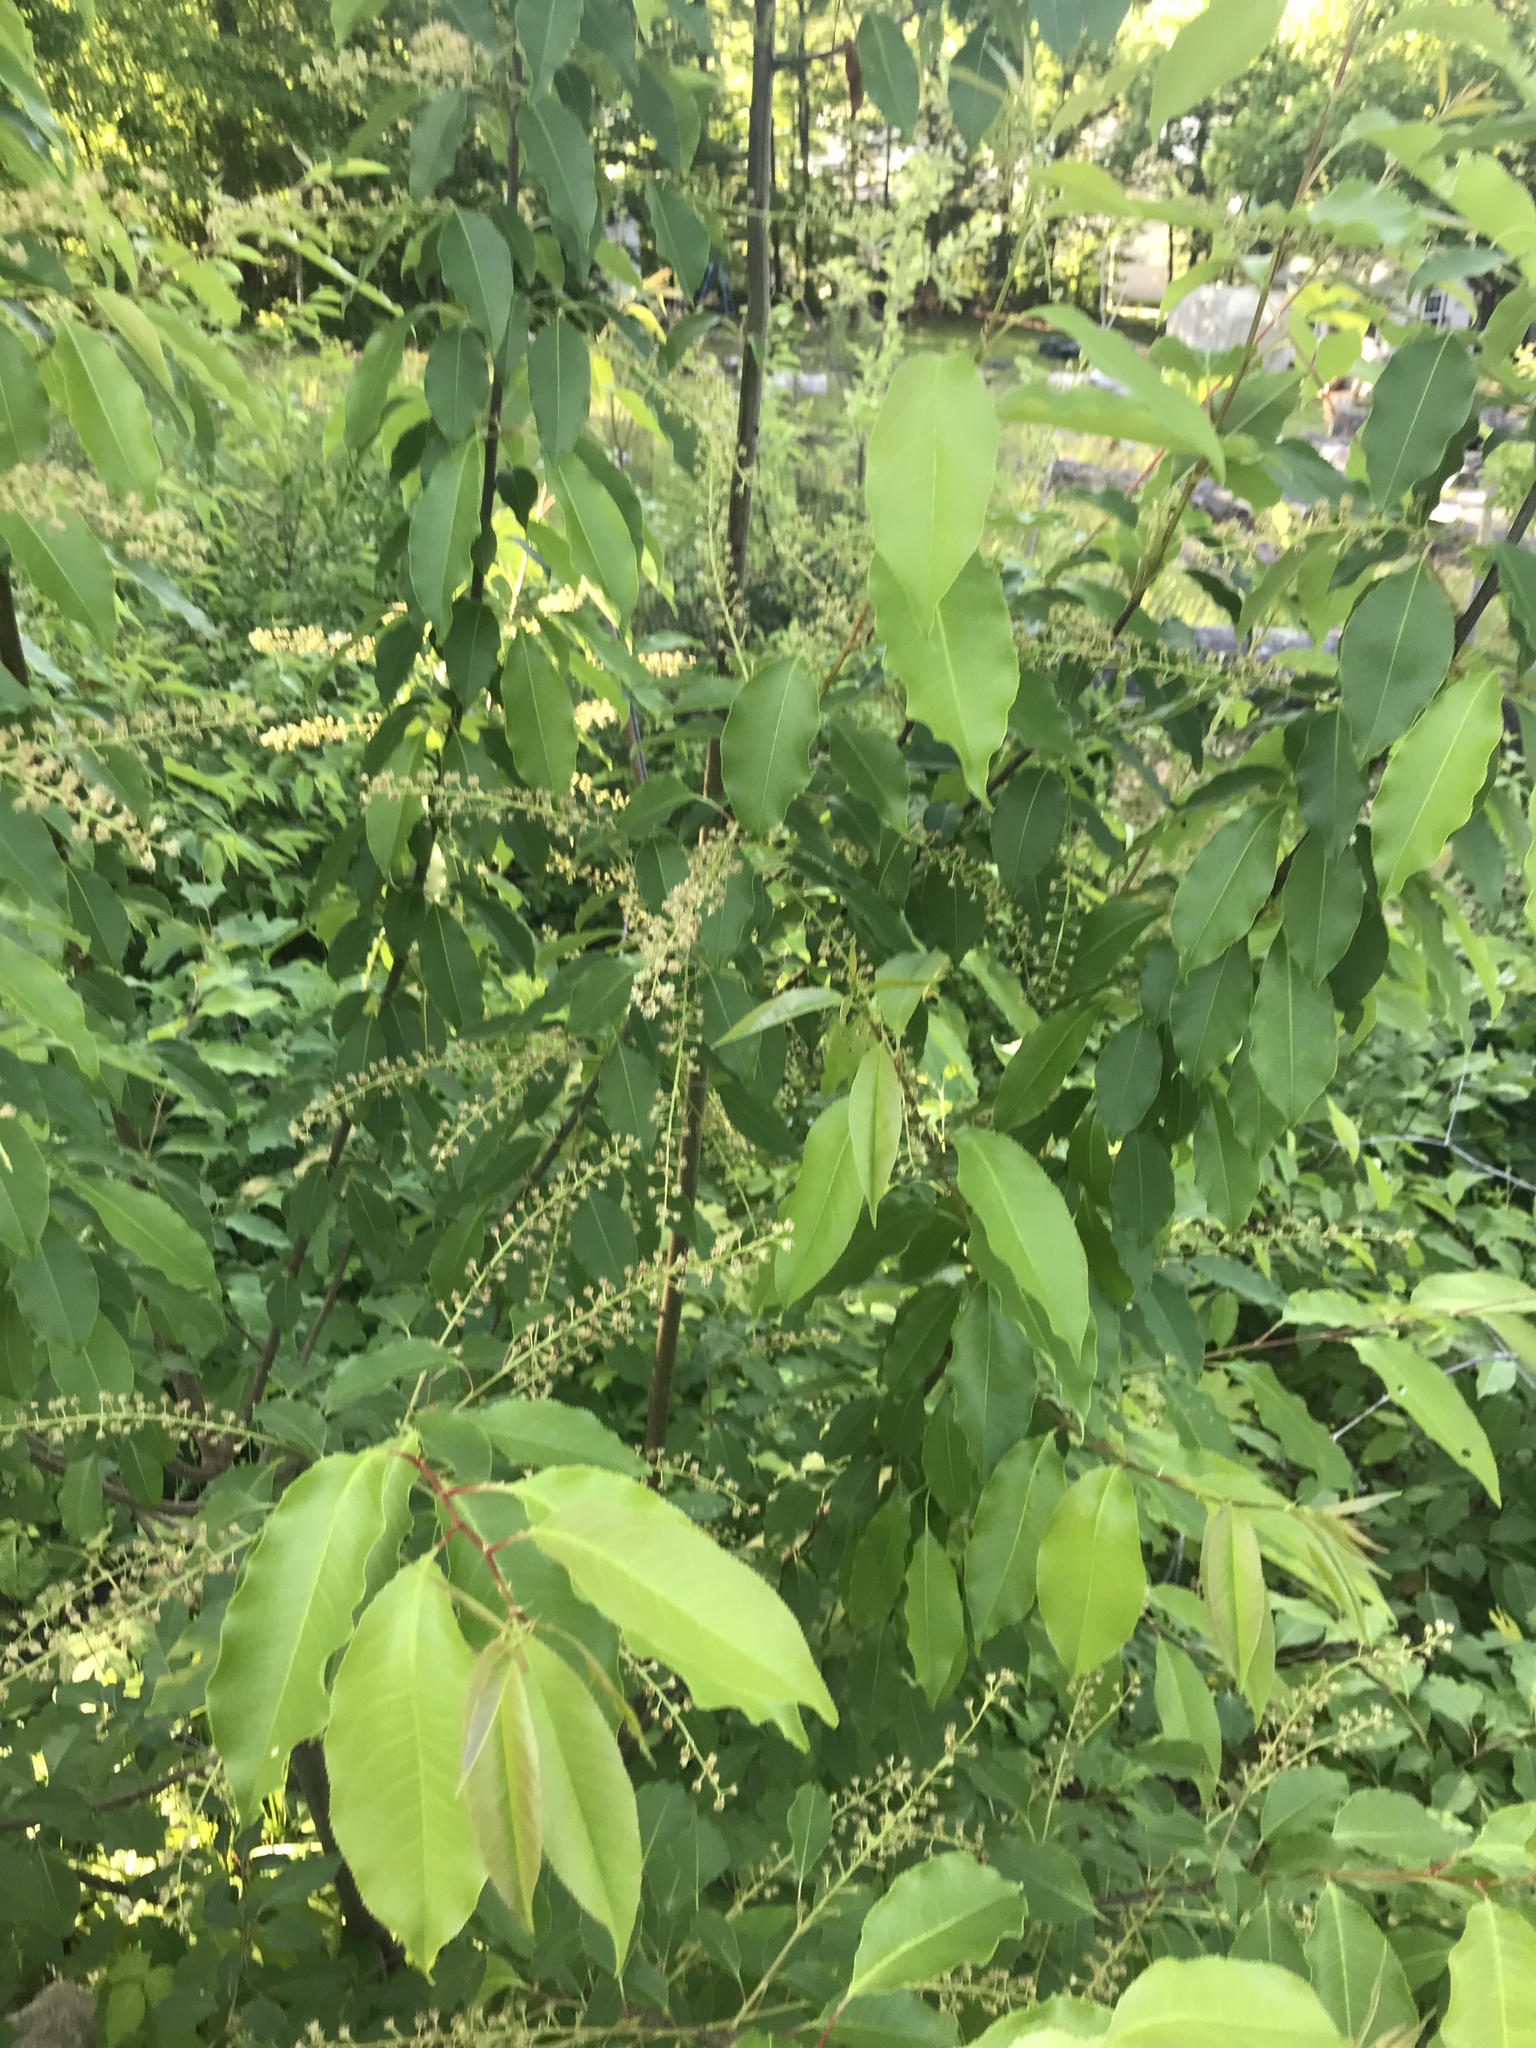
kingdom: Plantae
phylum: Tracheophyta
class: Magnoliopsida
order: Rosales
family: Rosaceae
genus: Prunus
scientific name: Prunus serotina
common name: Black cherry
